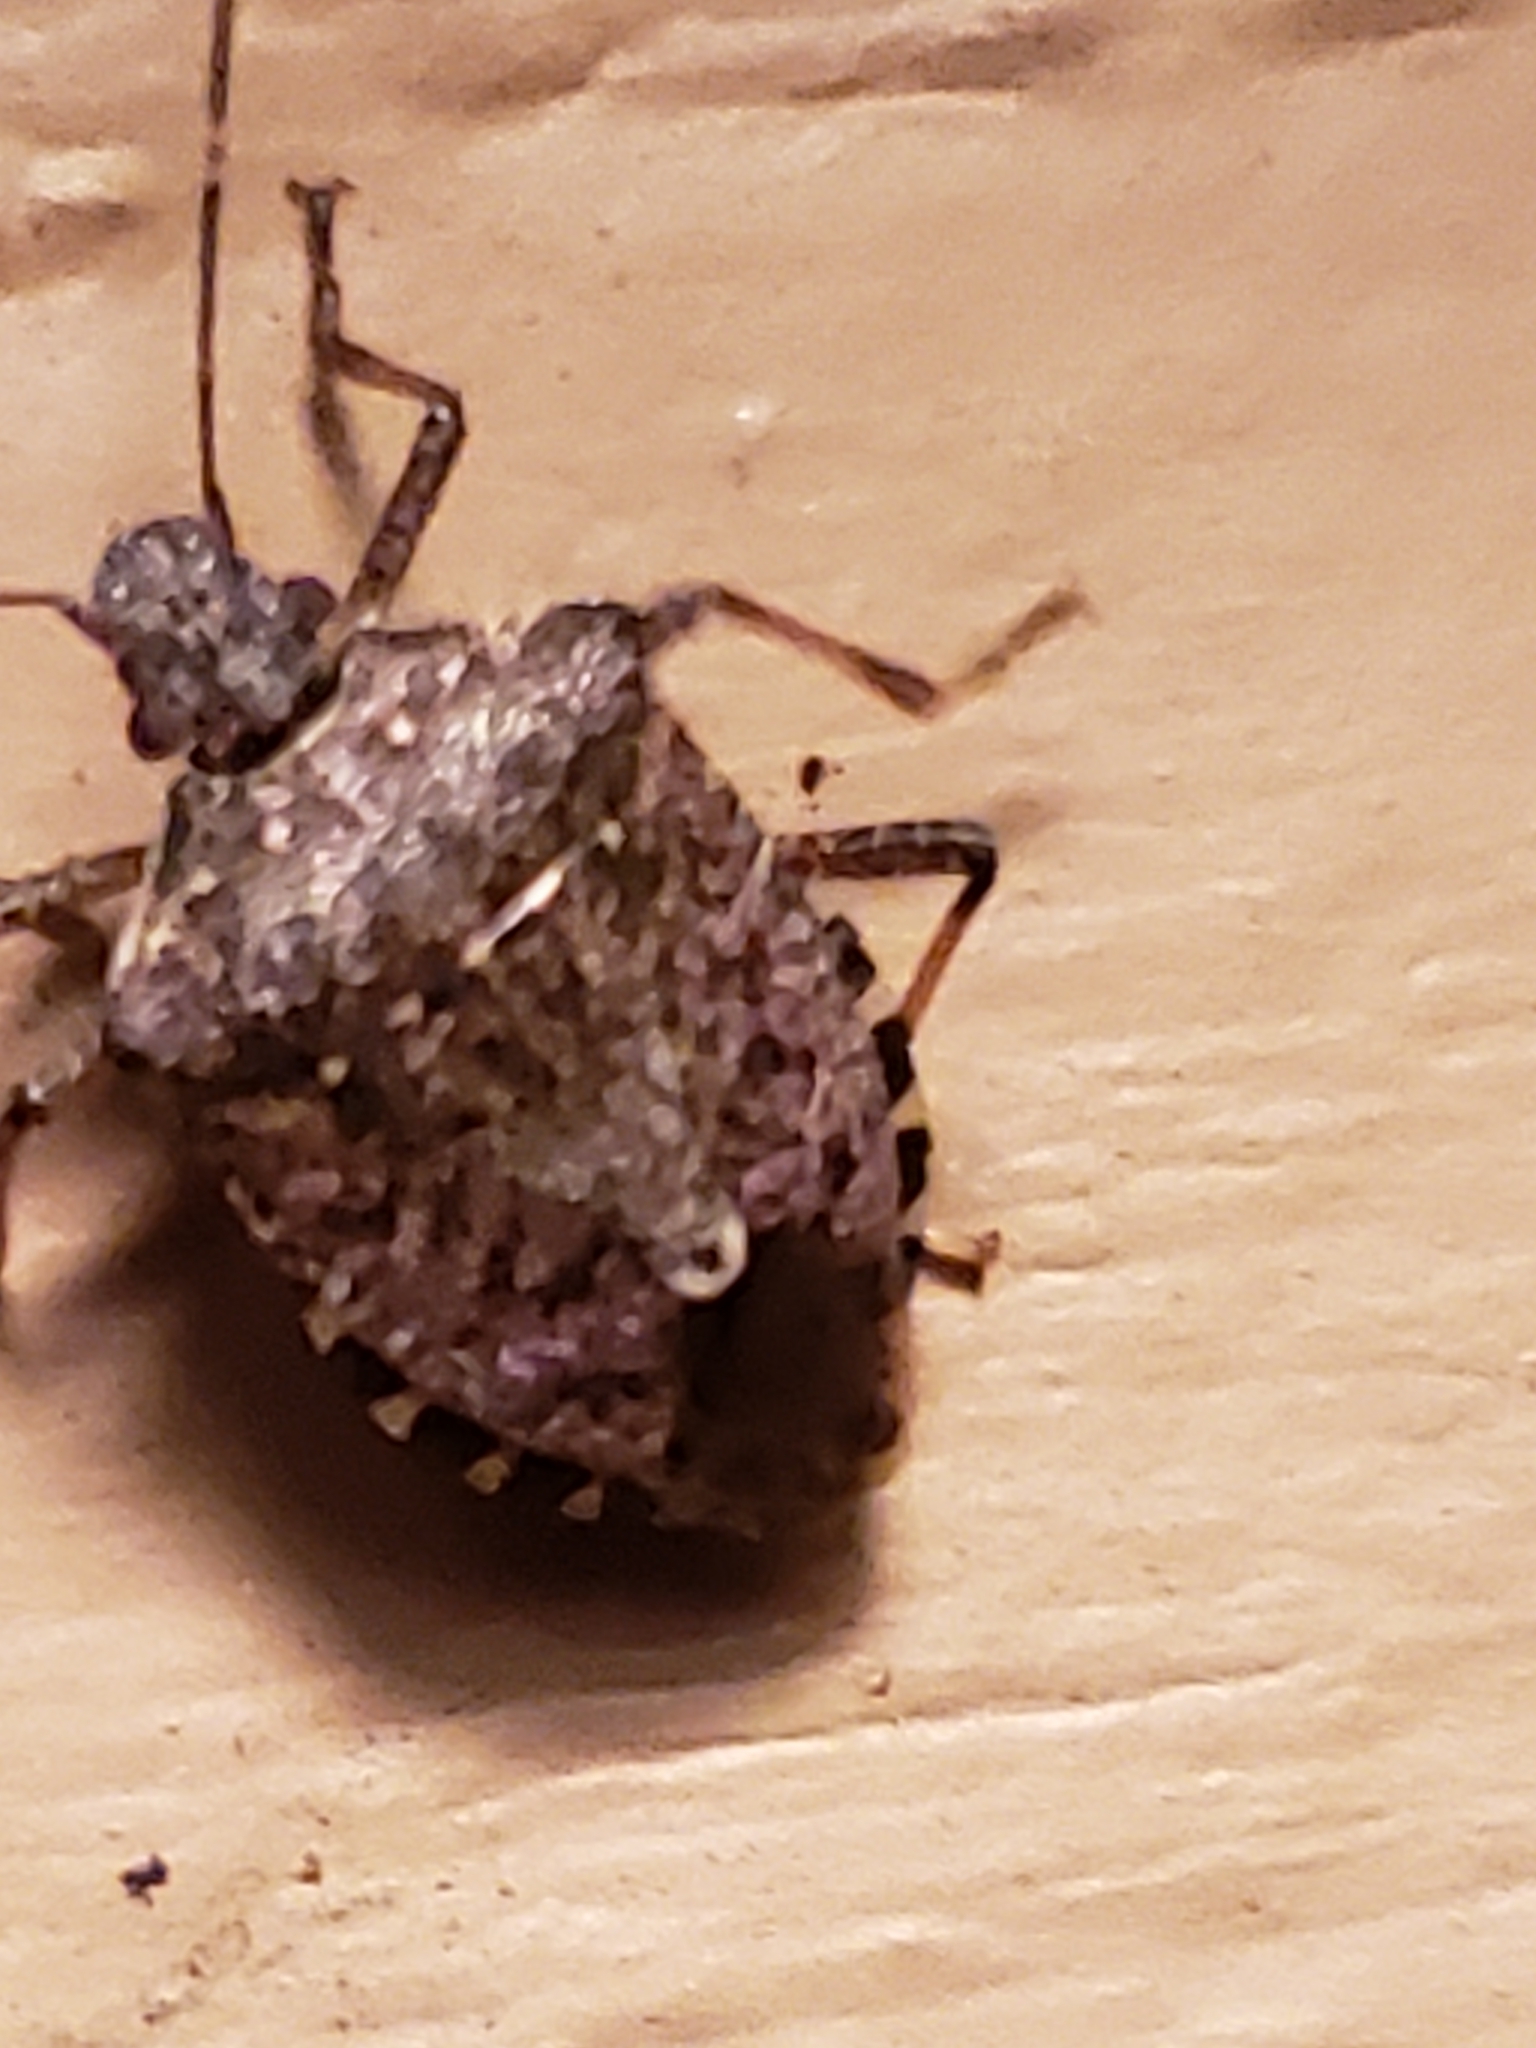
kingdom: Animalia
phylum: Arthropoda
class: Insecta
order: Hemiptera
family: Pentatomidae
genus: Halyomorpha
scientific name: Halyomorpha halys
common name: Brown marmorated stink bug
